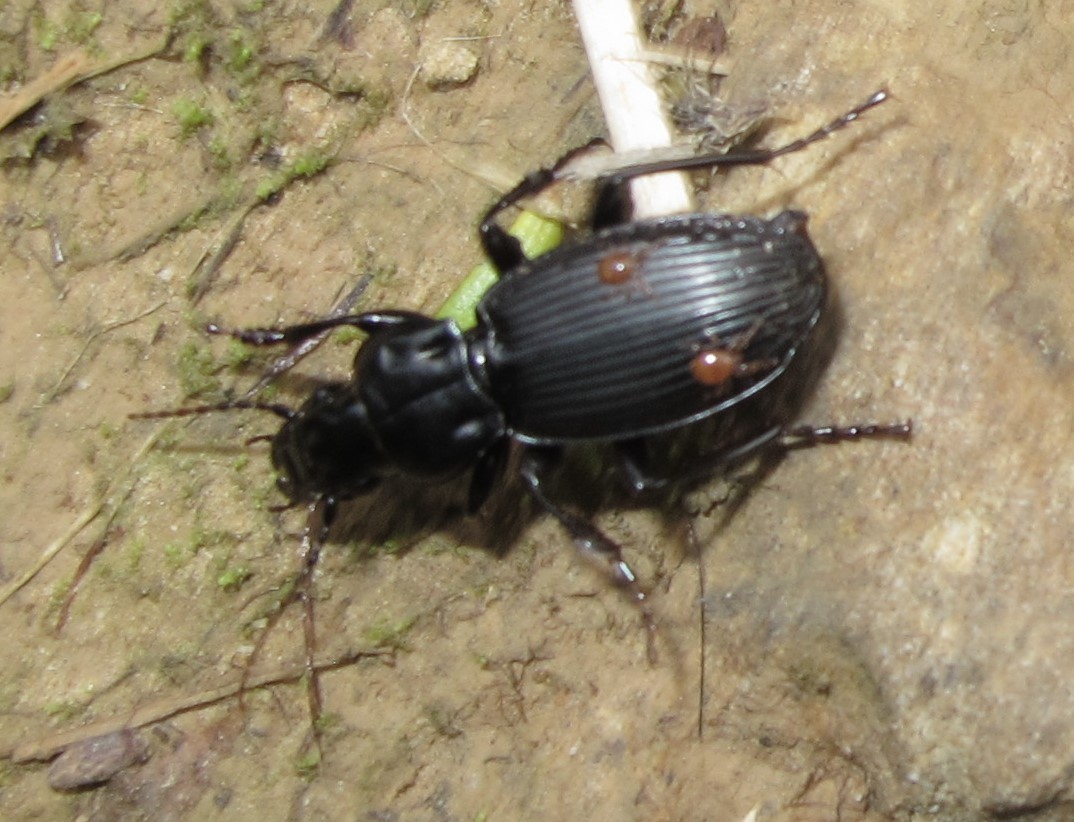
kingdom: Animalia
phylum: Arthropoda
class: Arachnida
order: Mesostigmata
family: Discozerconidae
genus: Berzercon
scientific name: Berzercon ferdinandi
